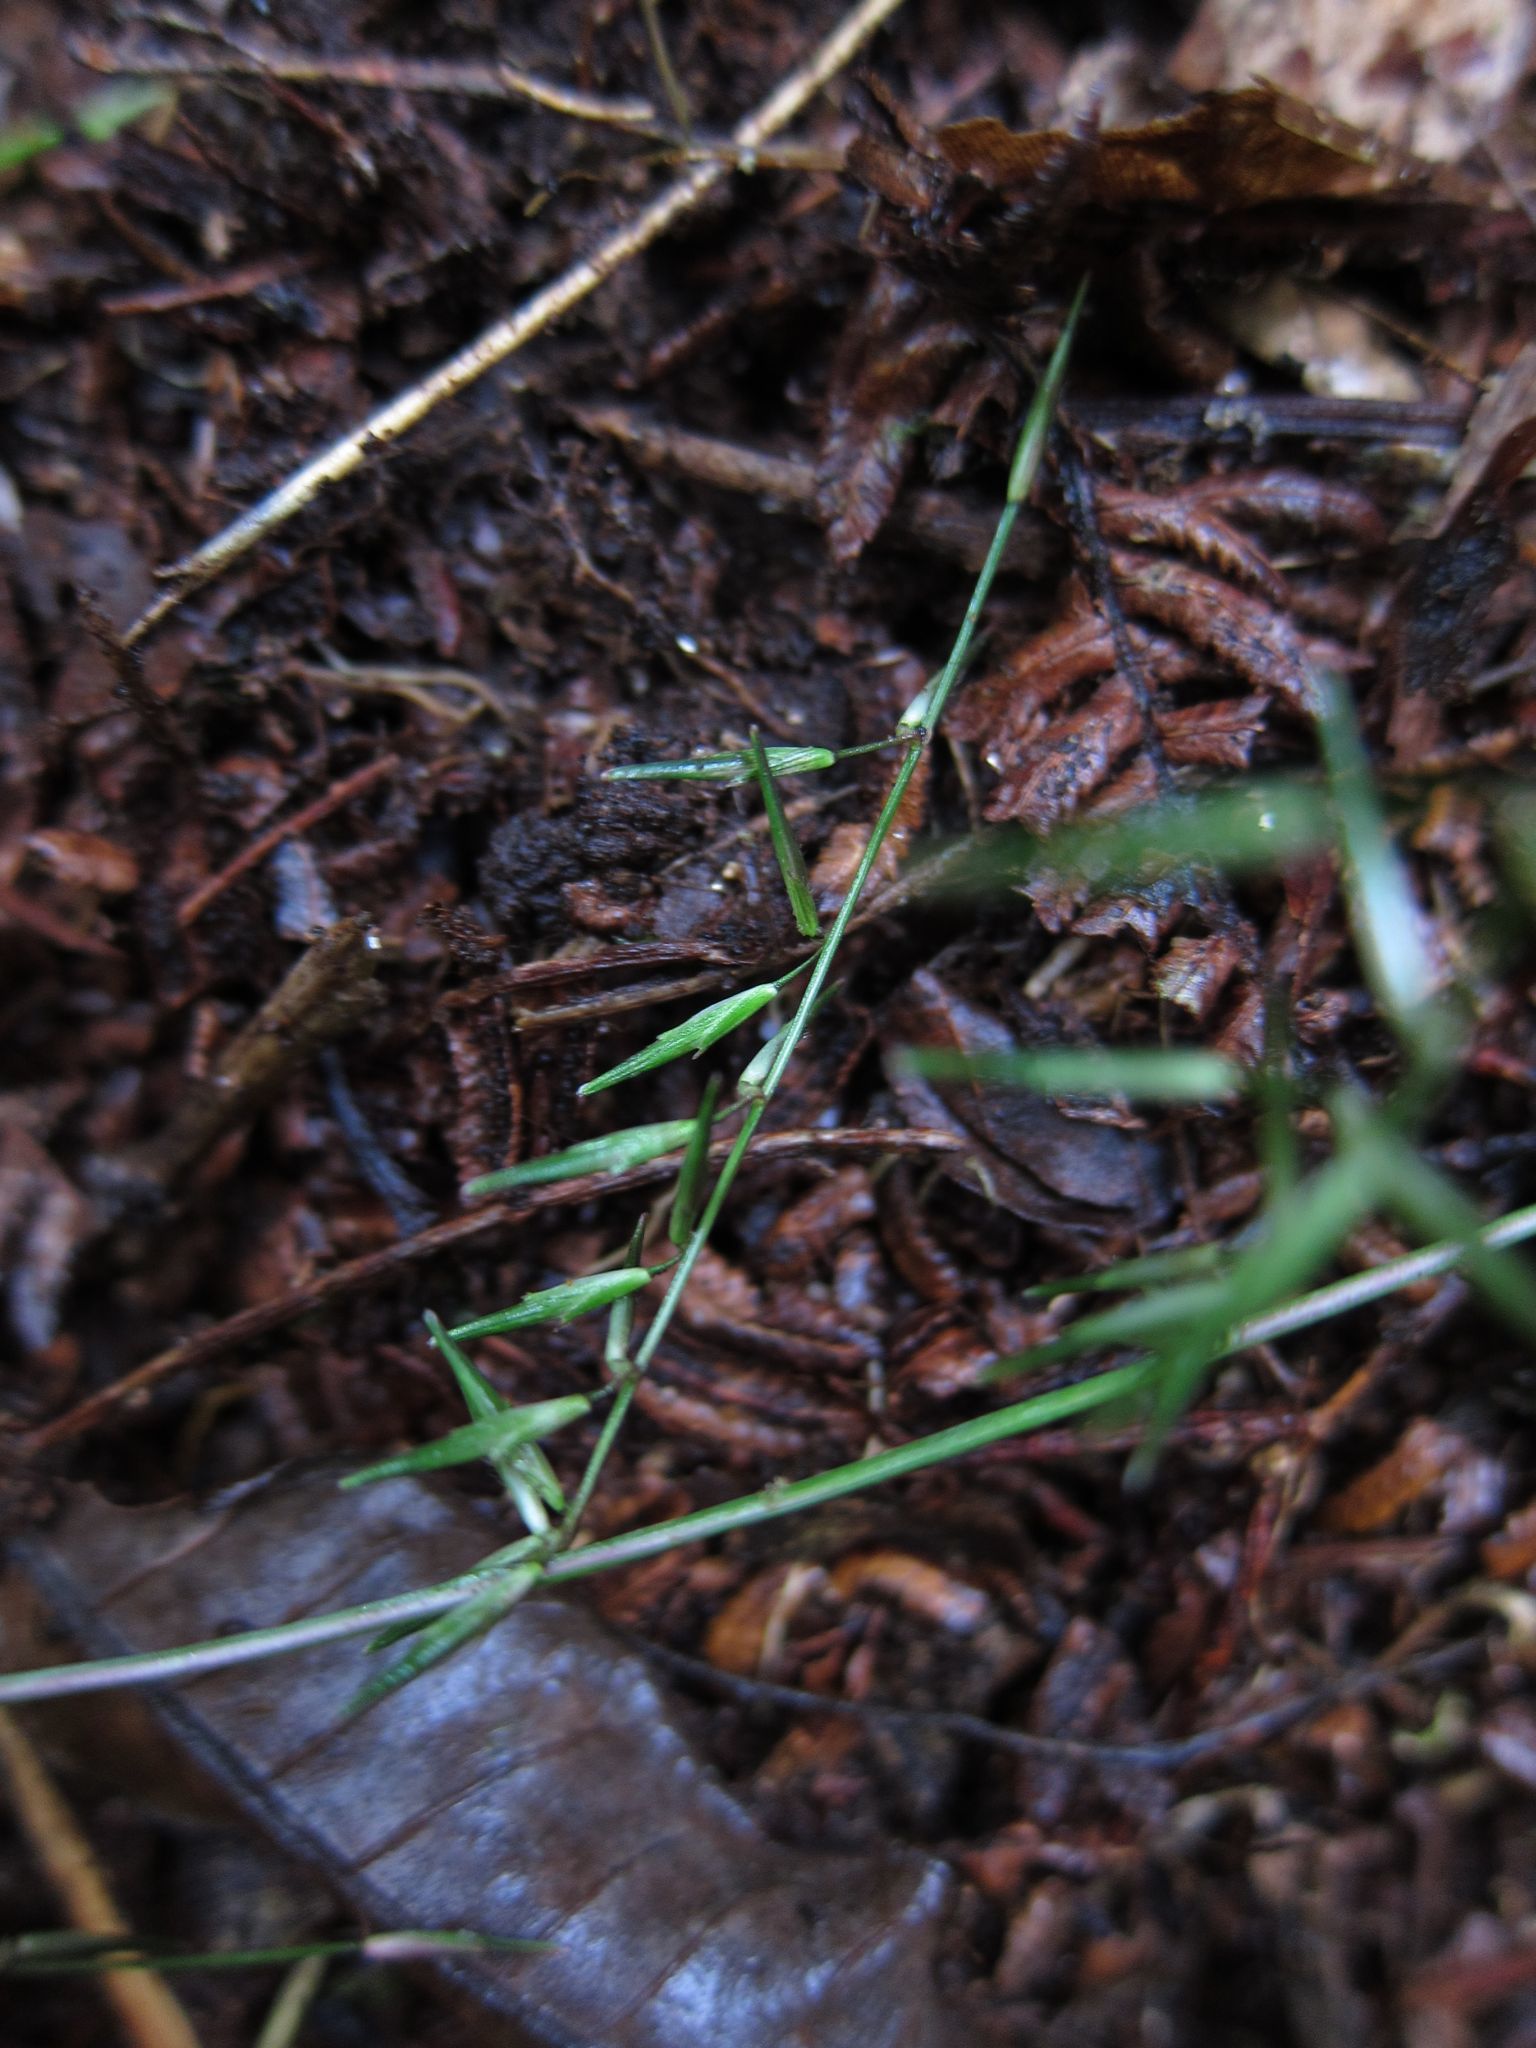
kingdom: Plantae
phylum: Tracheophyta
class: Liliopsida
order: Poales
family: Poaceae
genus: Poecilostachys
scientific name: Poecilostachys geminata
